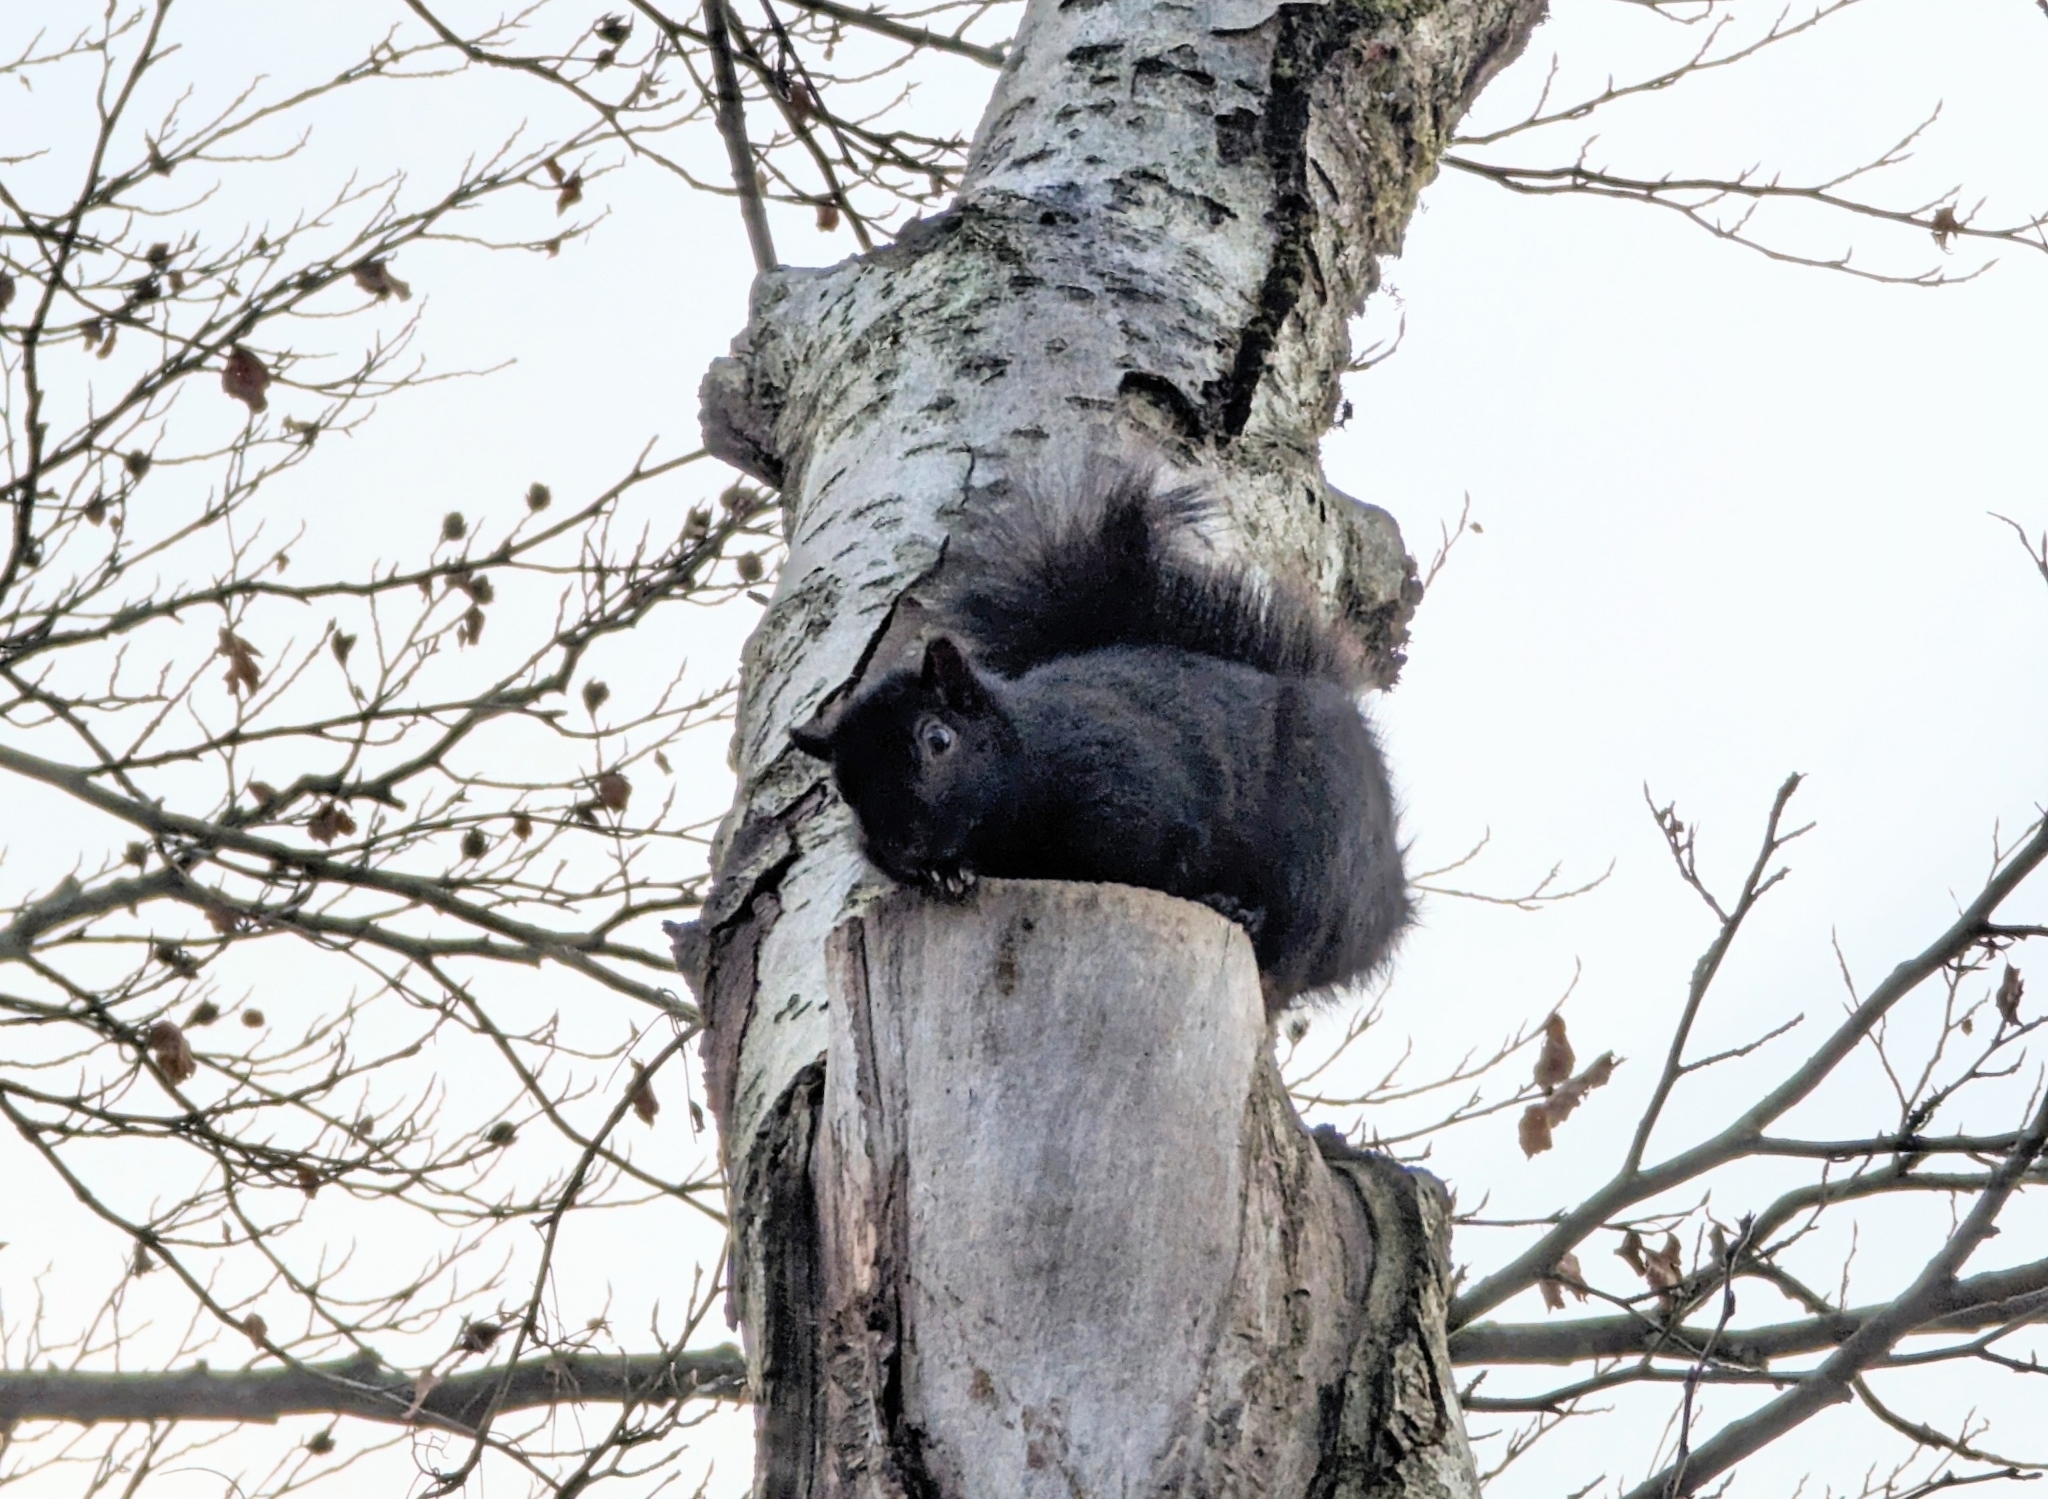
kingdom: Animalia
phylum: Chordata
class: Mammalia
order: Rodentia
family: Sciuridae
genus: Sciurus
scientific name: Sciurus carolinensis
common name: Eastern gray squirrel
